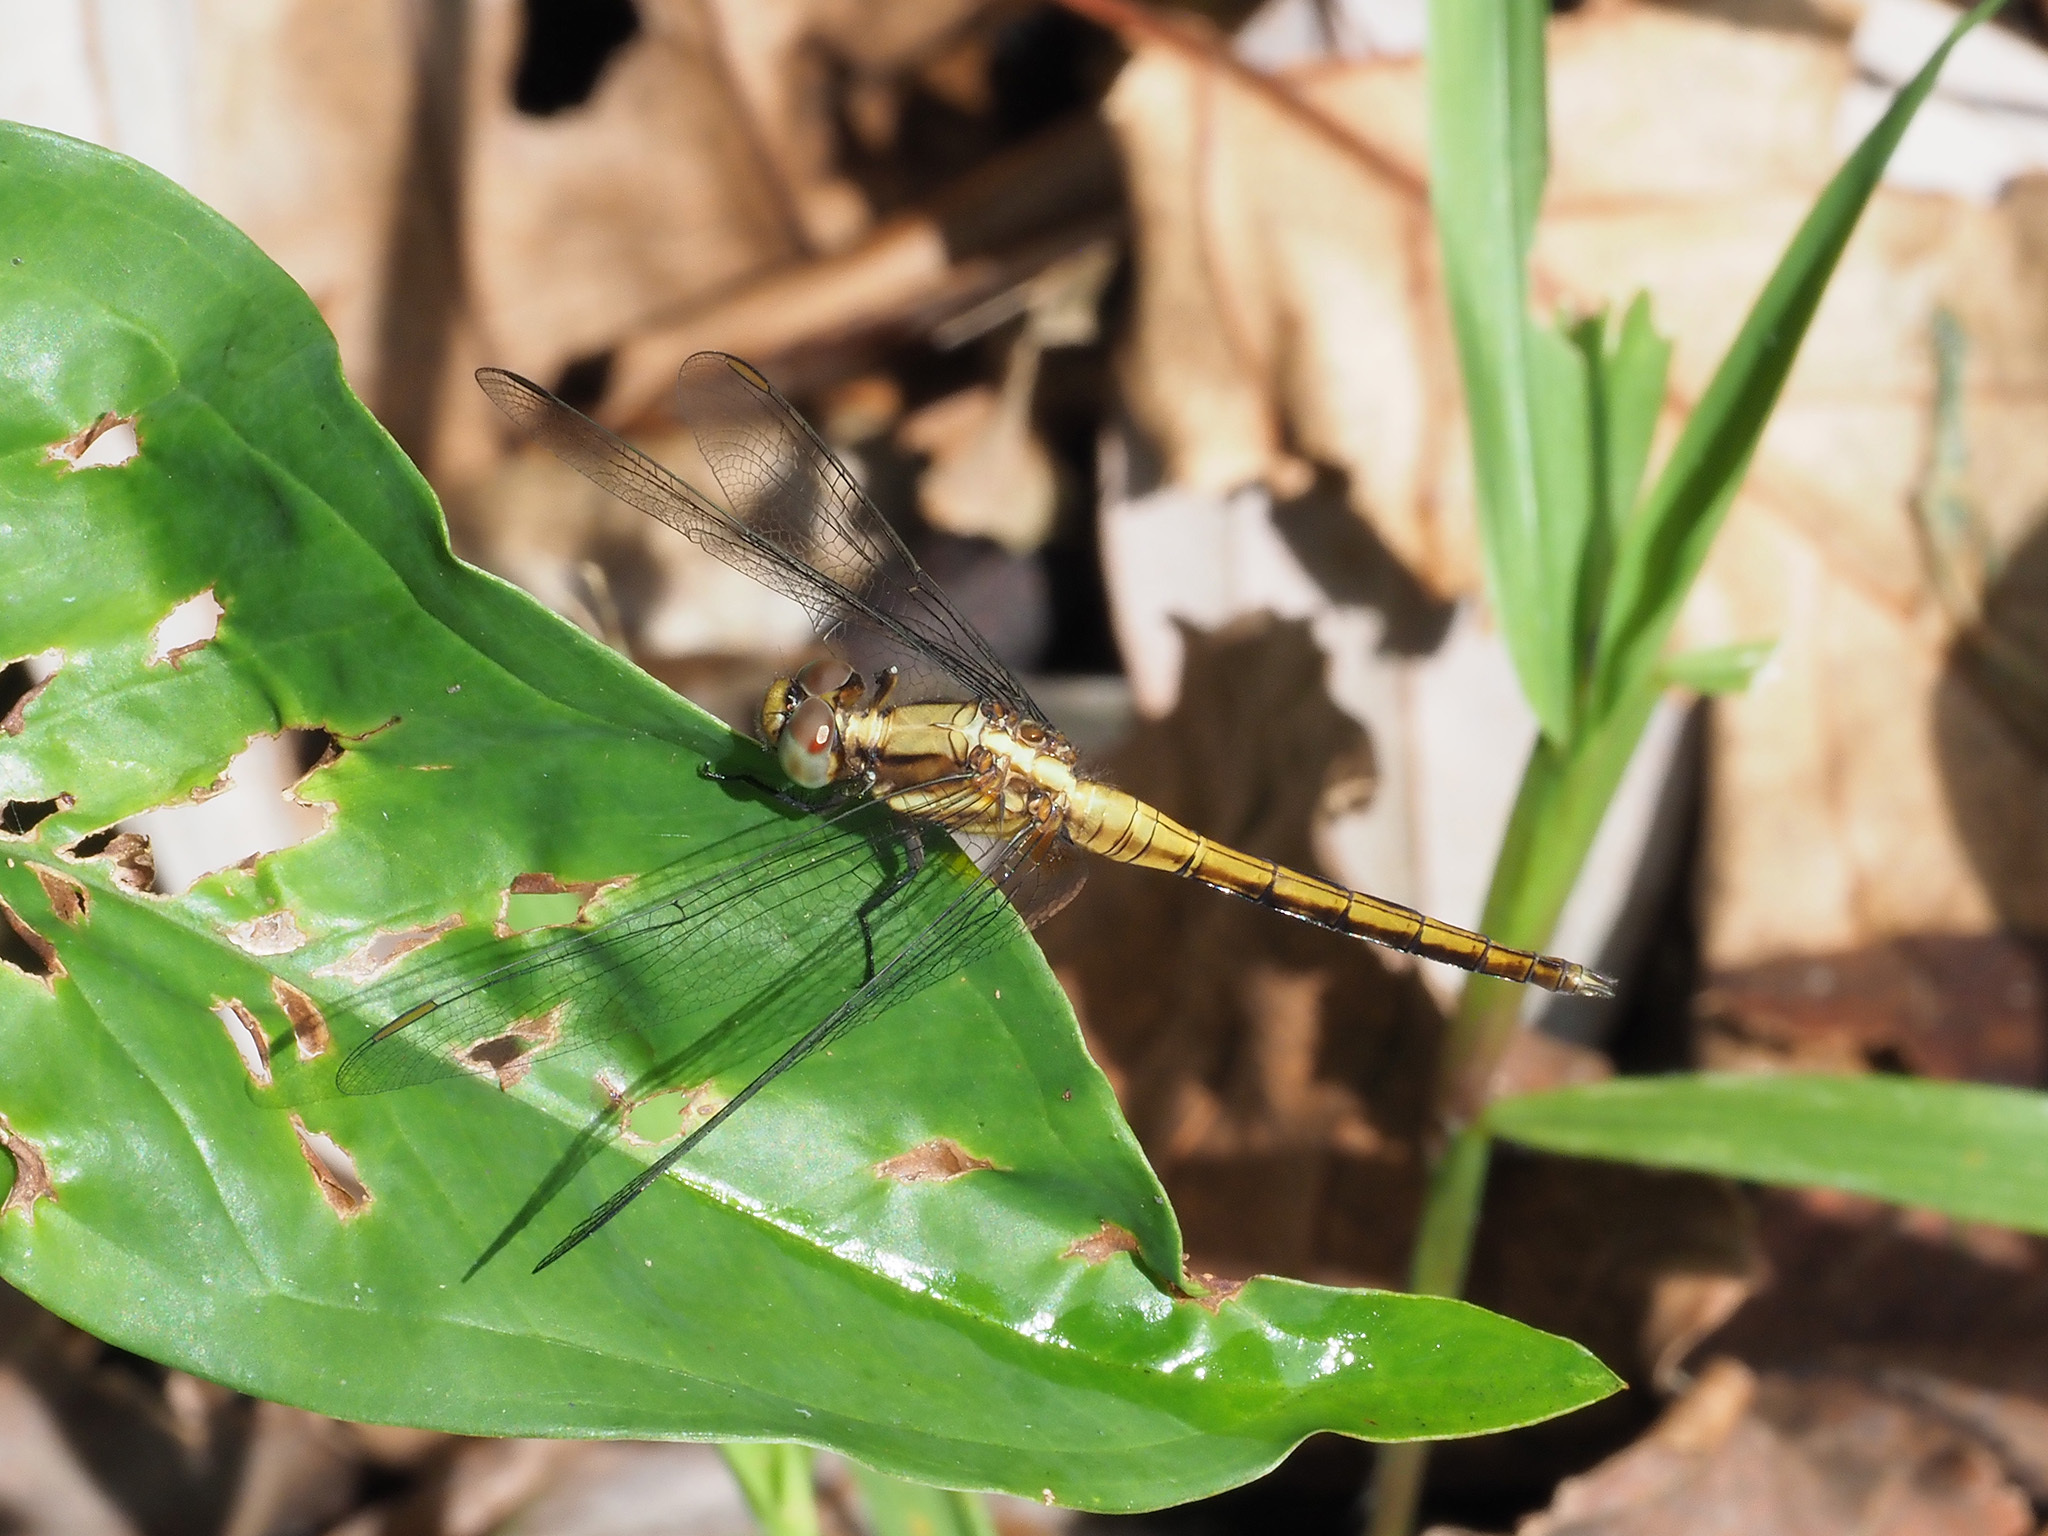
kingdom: Animalia
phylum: Arthropoda
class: Insecta
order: Odonata
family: Libellulidae
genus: Orthetrum
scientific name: Orthetrum glaucum
